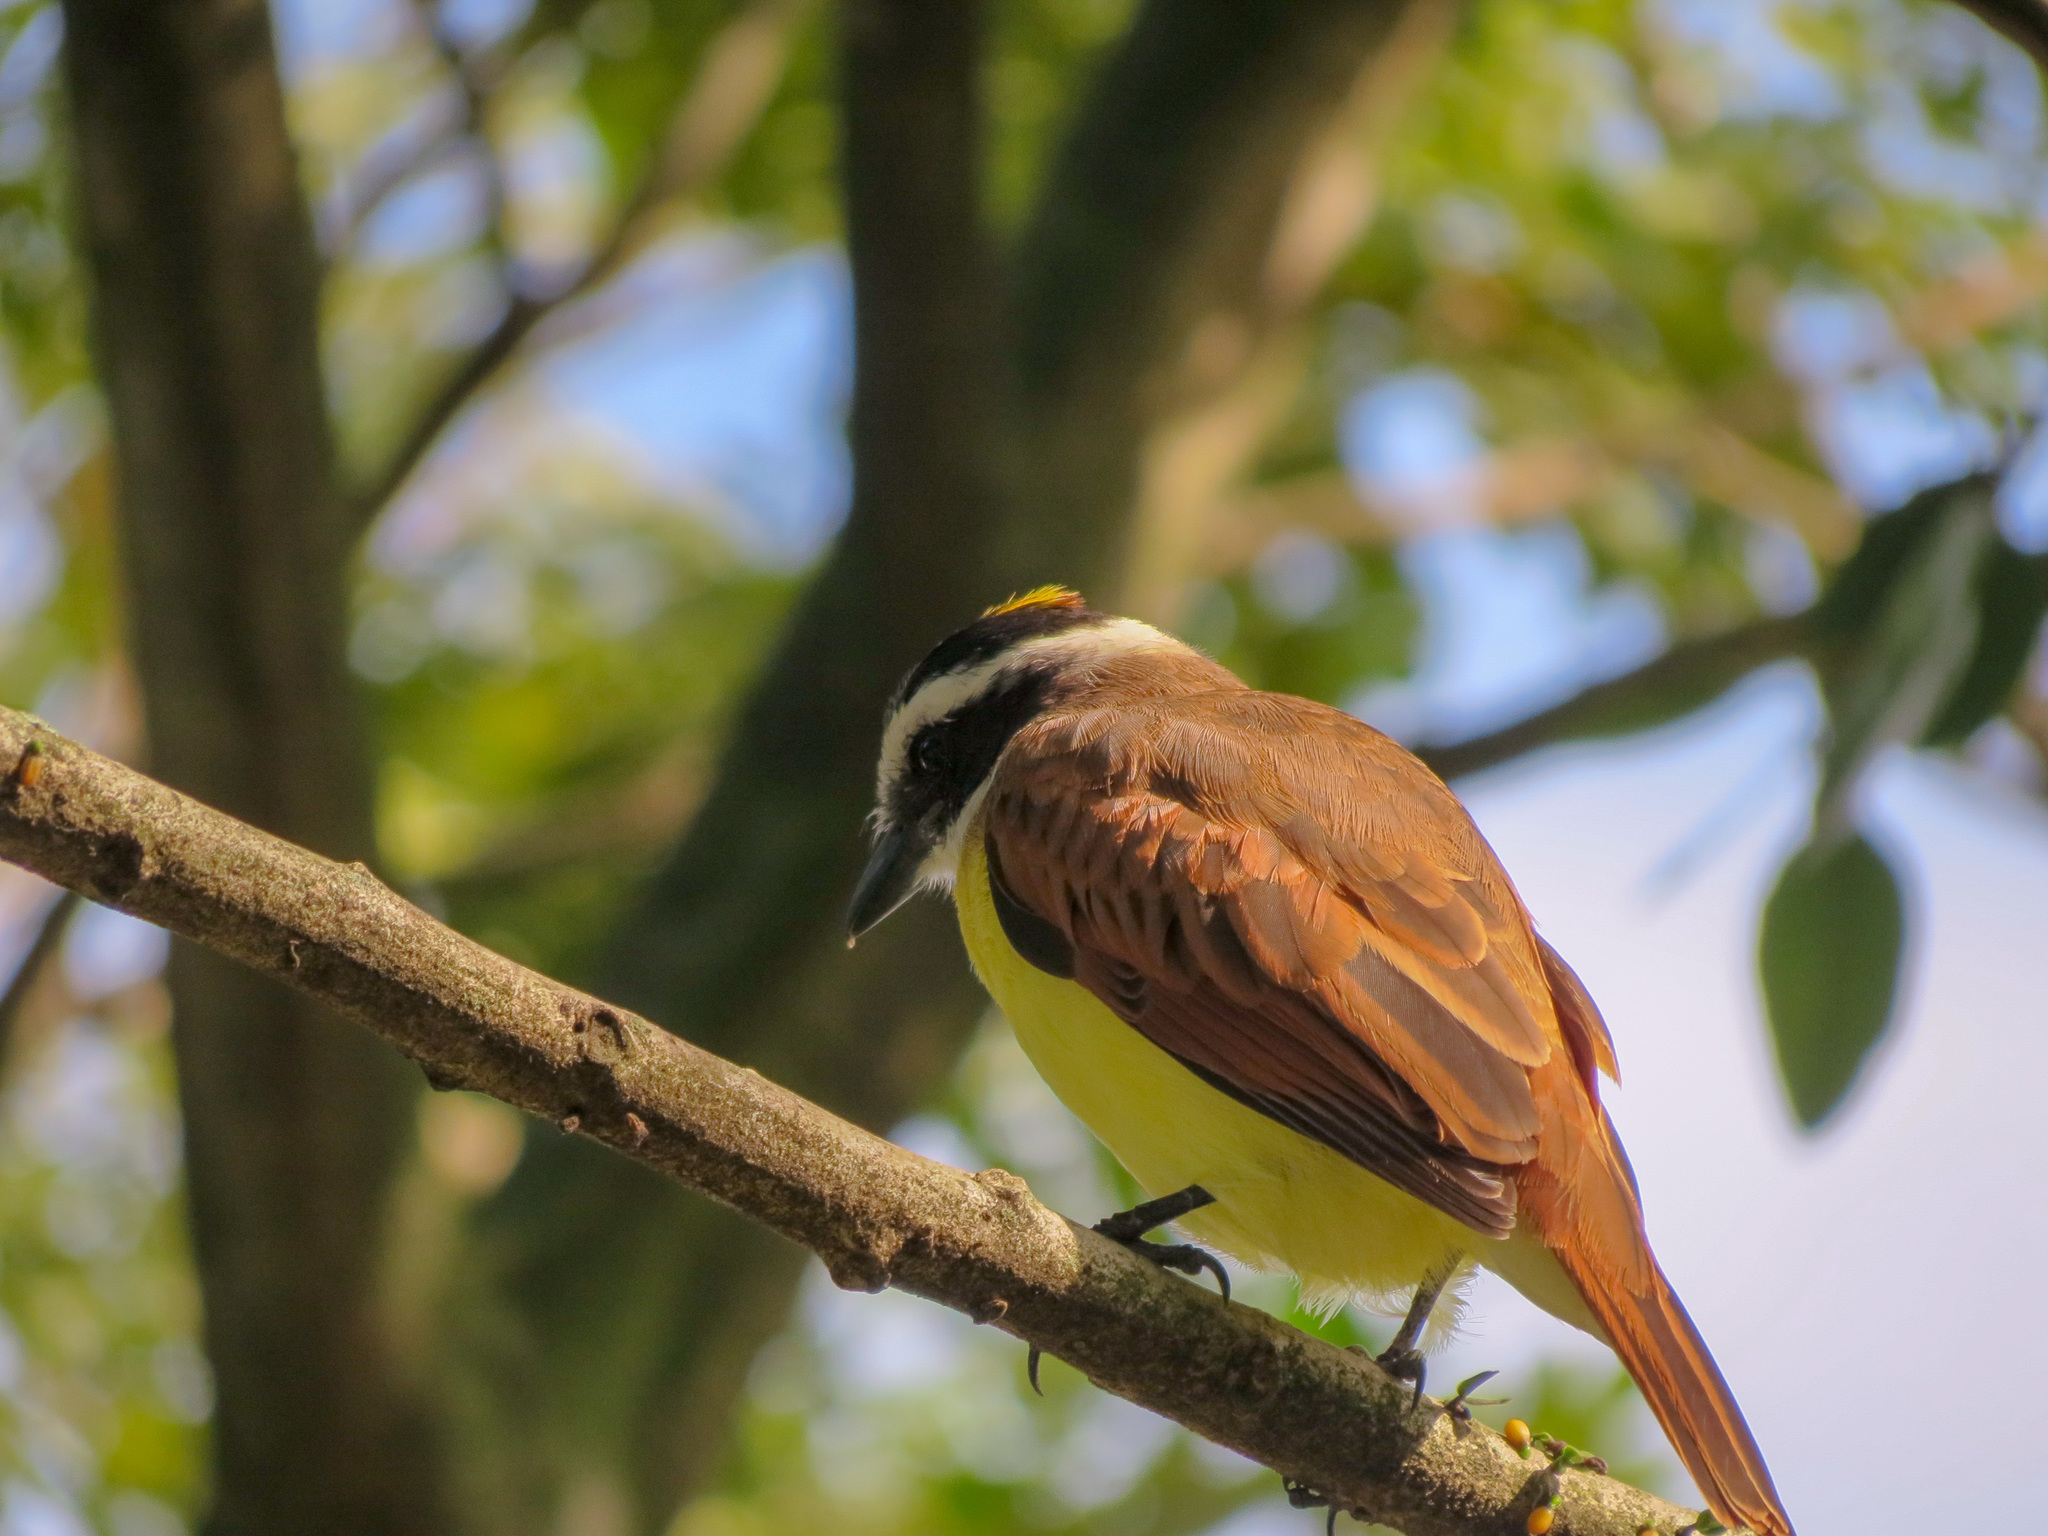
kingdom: Animalia
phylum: Chordata
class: Aves
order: Passeriformes
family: Tyrannidae
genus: Pitangus
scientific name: Pitangus sulphuratus
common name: Great kiskadee
